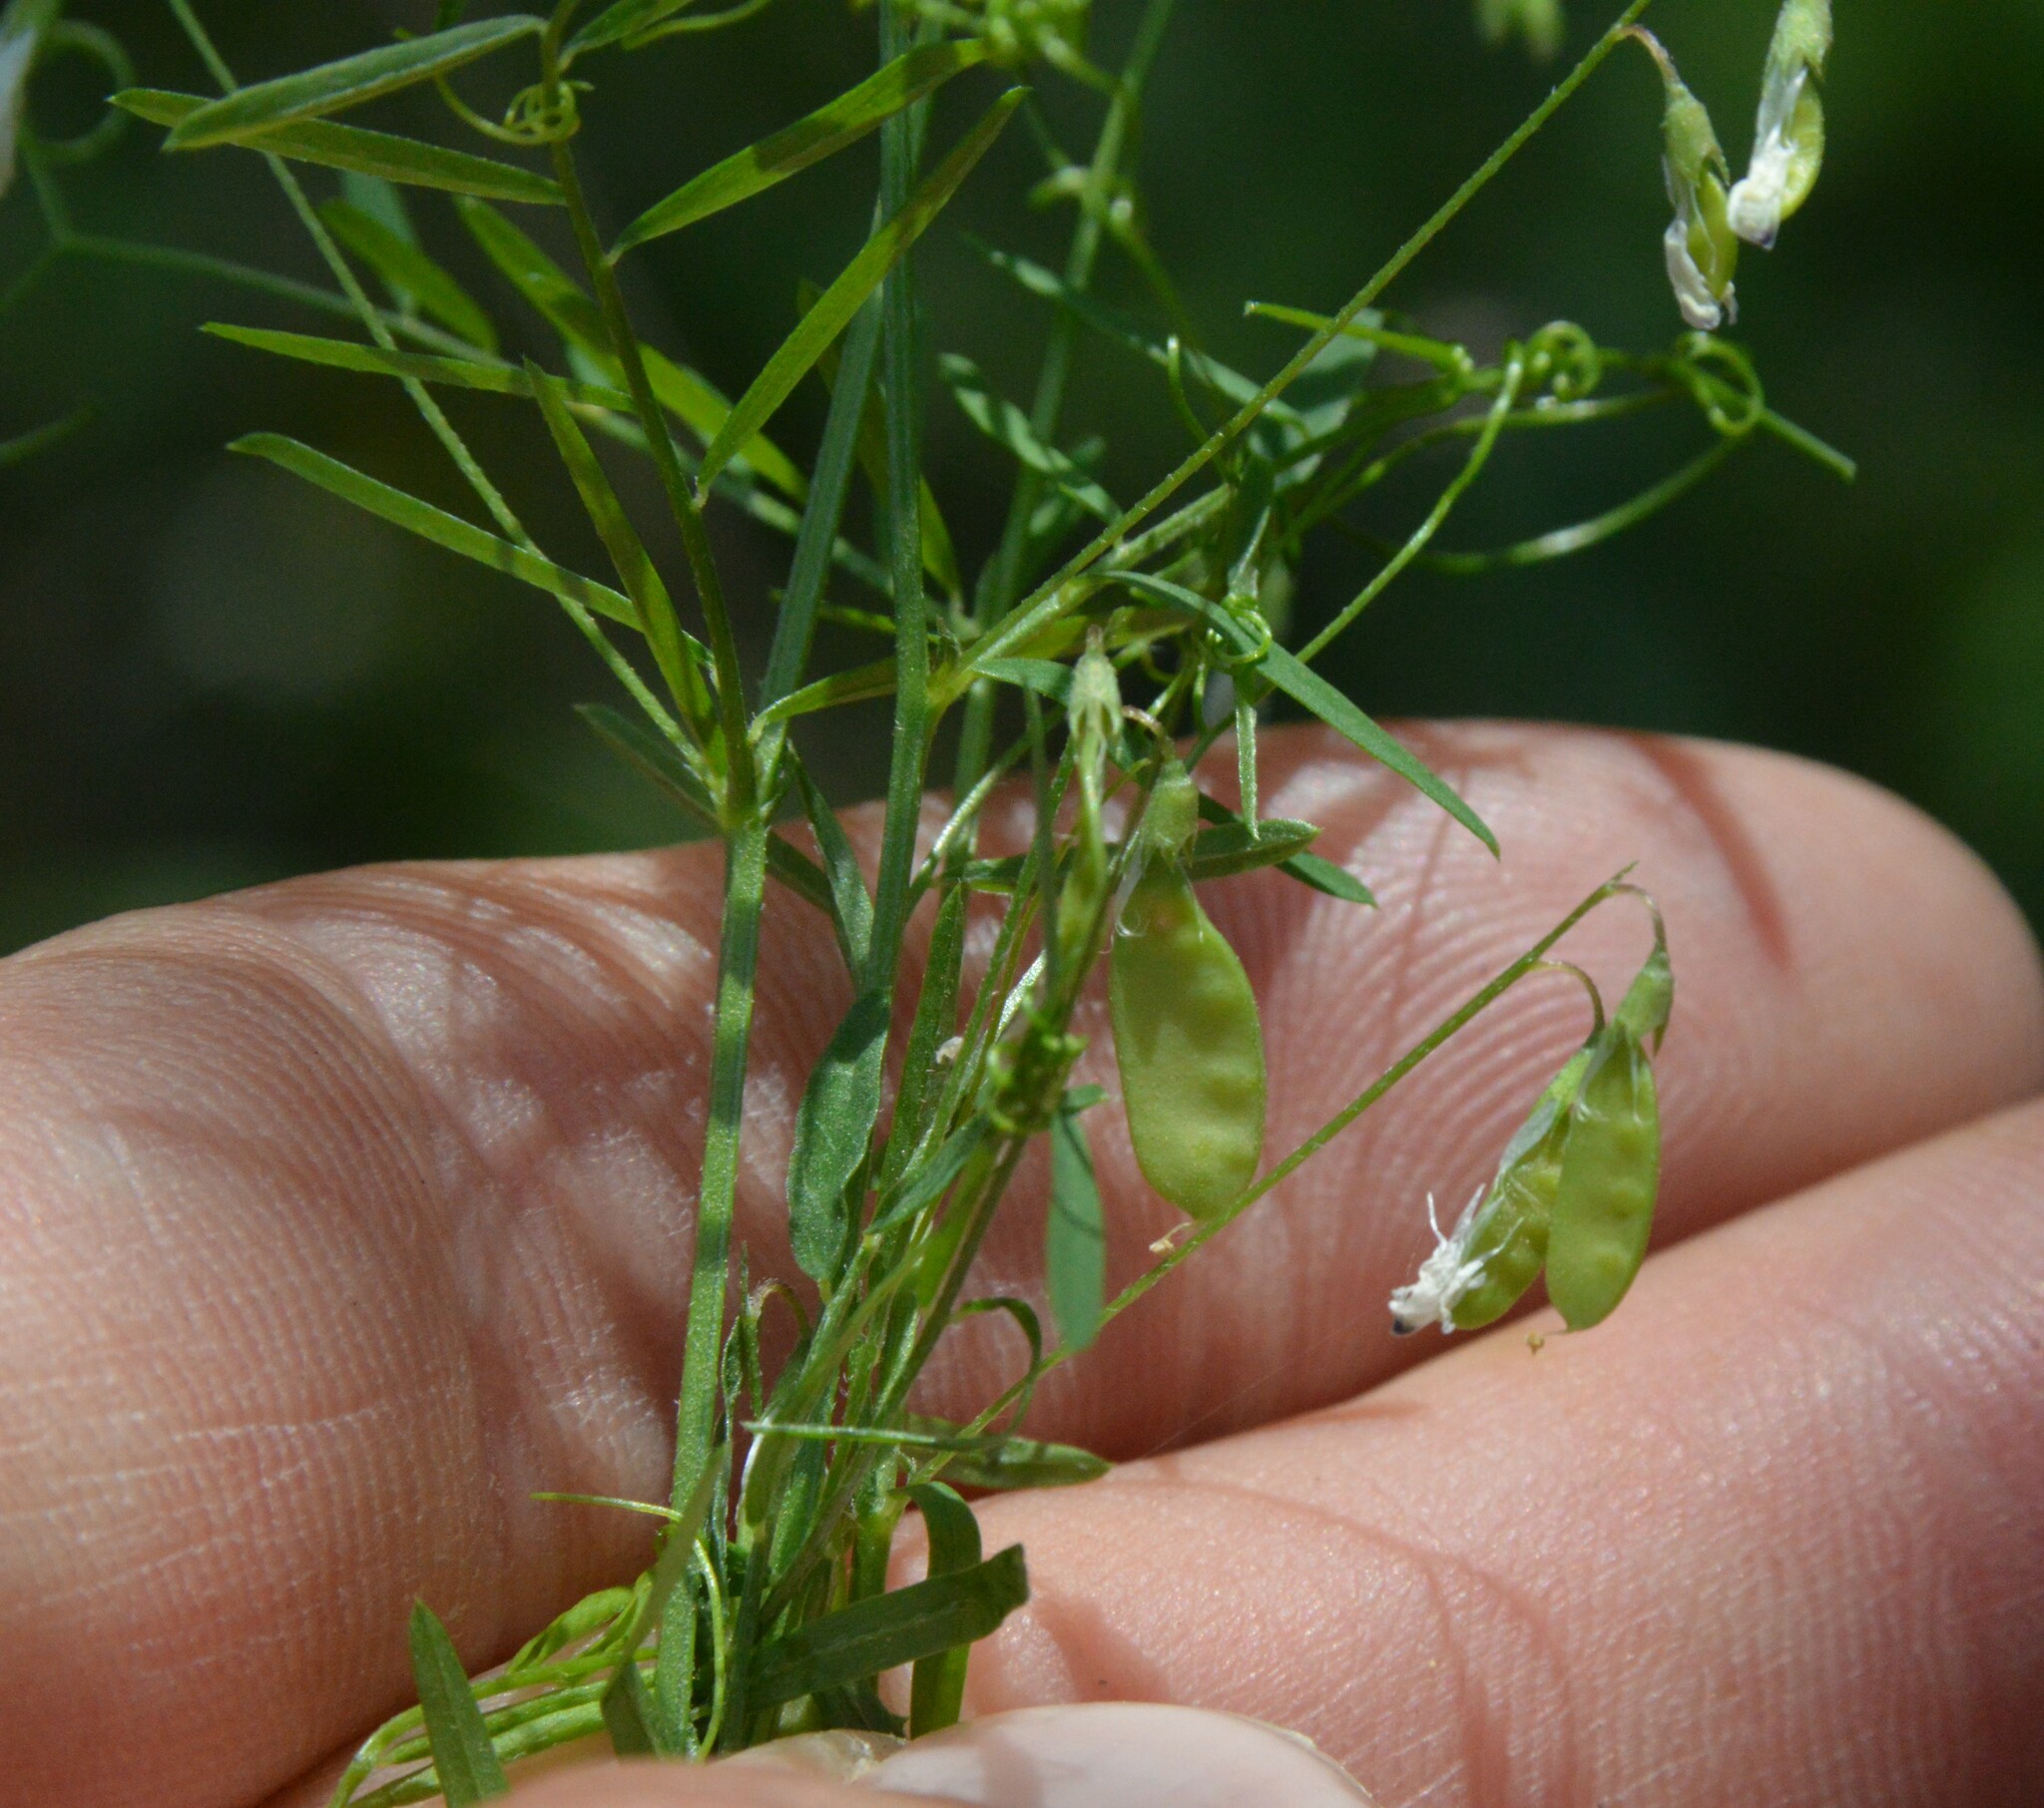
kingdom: Plantae
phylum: Tracheophyta
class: Magnoliopsida
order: Fabales
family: Fabaceae
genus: Vicia
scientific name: Vicia tetrasperma
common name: Smooth tare
